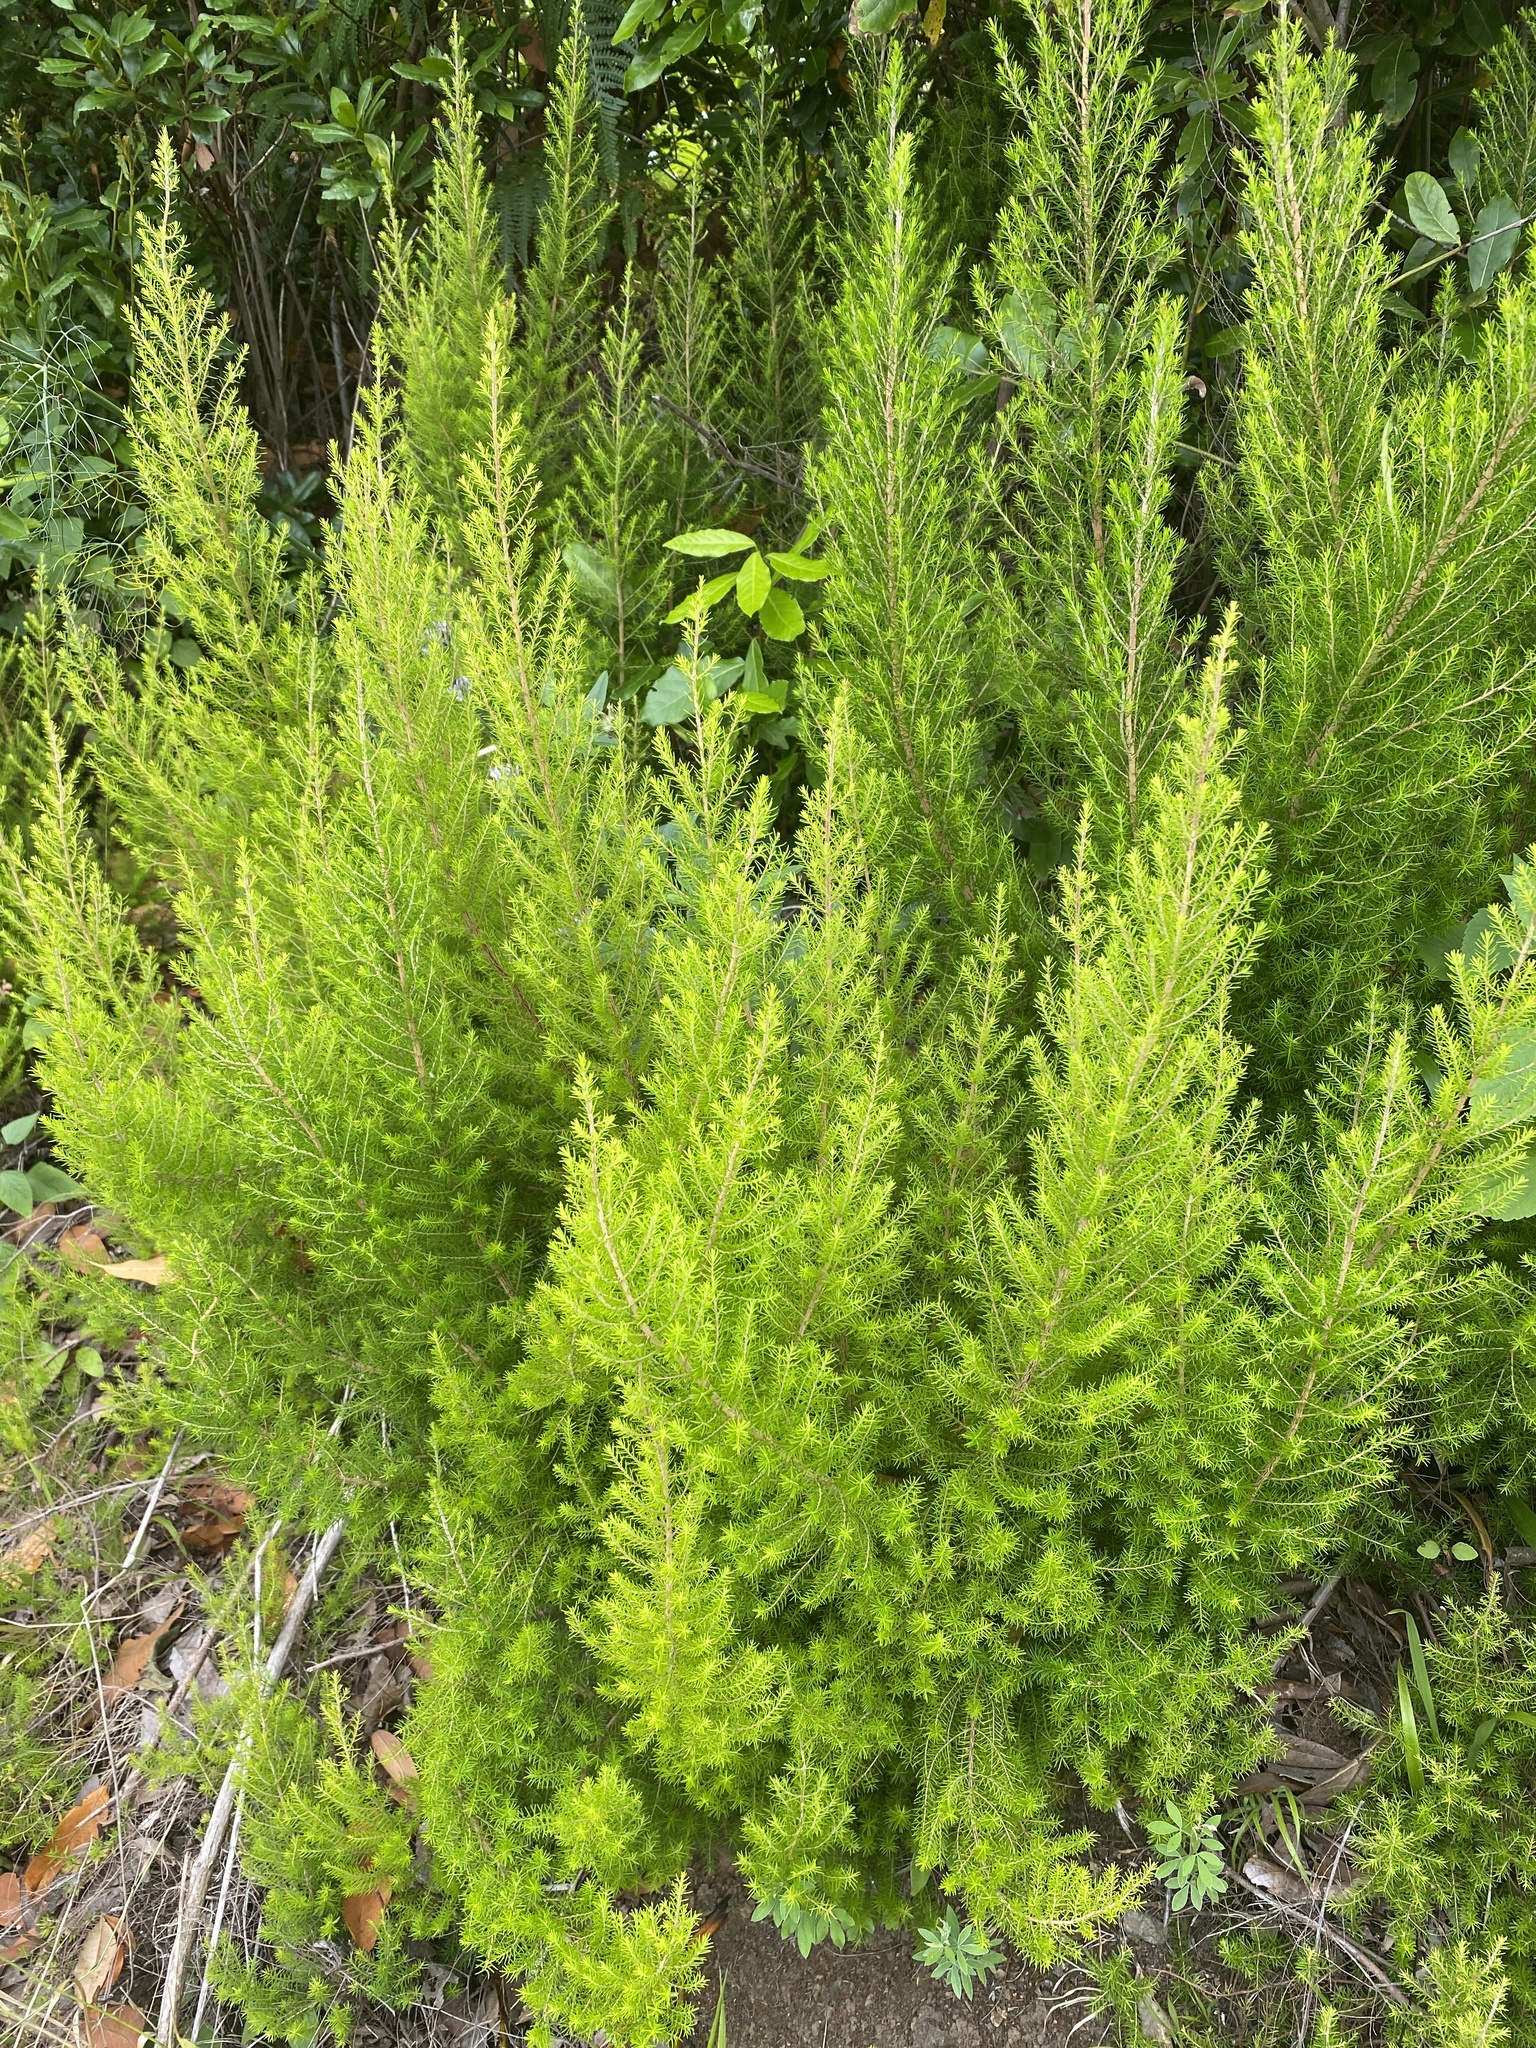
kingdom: Plantae
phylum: Tracheophyta
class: Magnoliopsida
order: Ericales
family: Ericaceae
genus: Erica
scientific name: Erica canariensis
